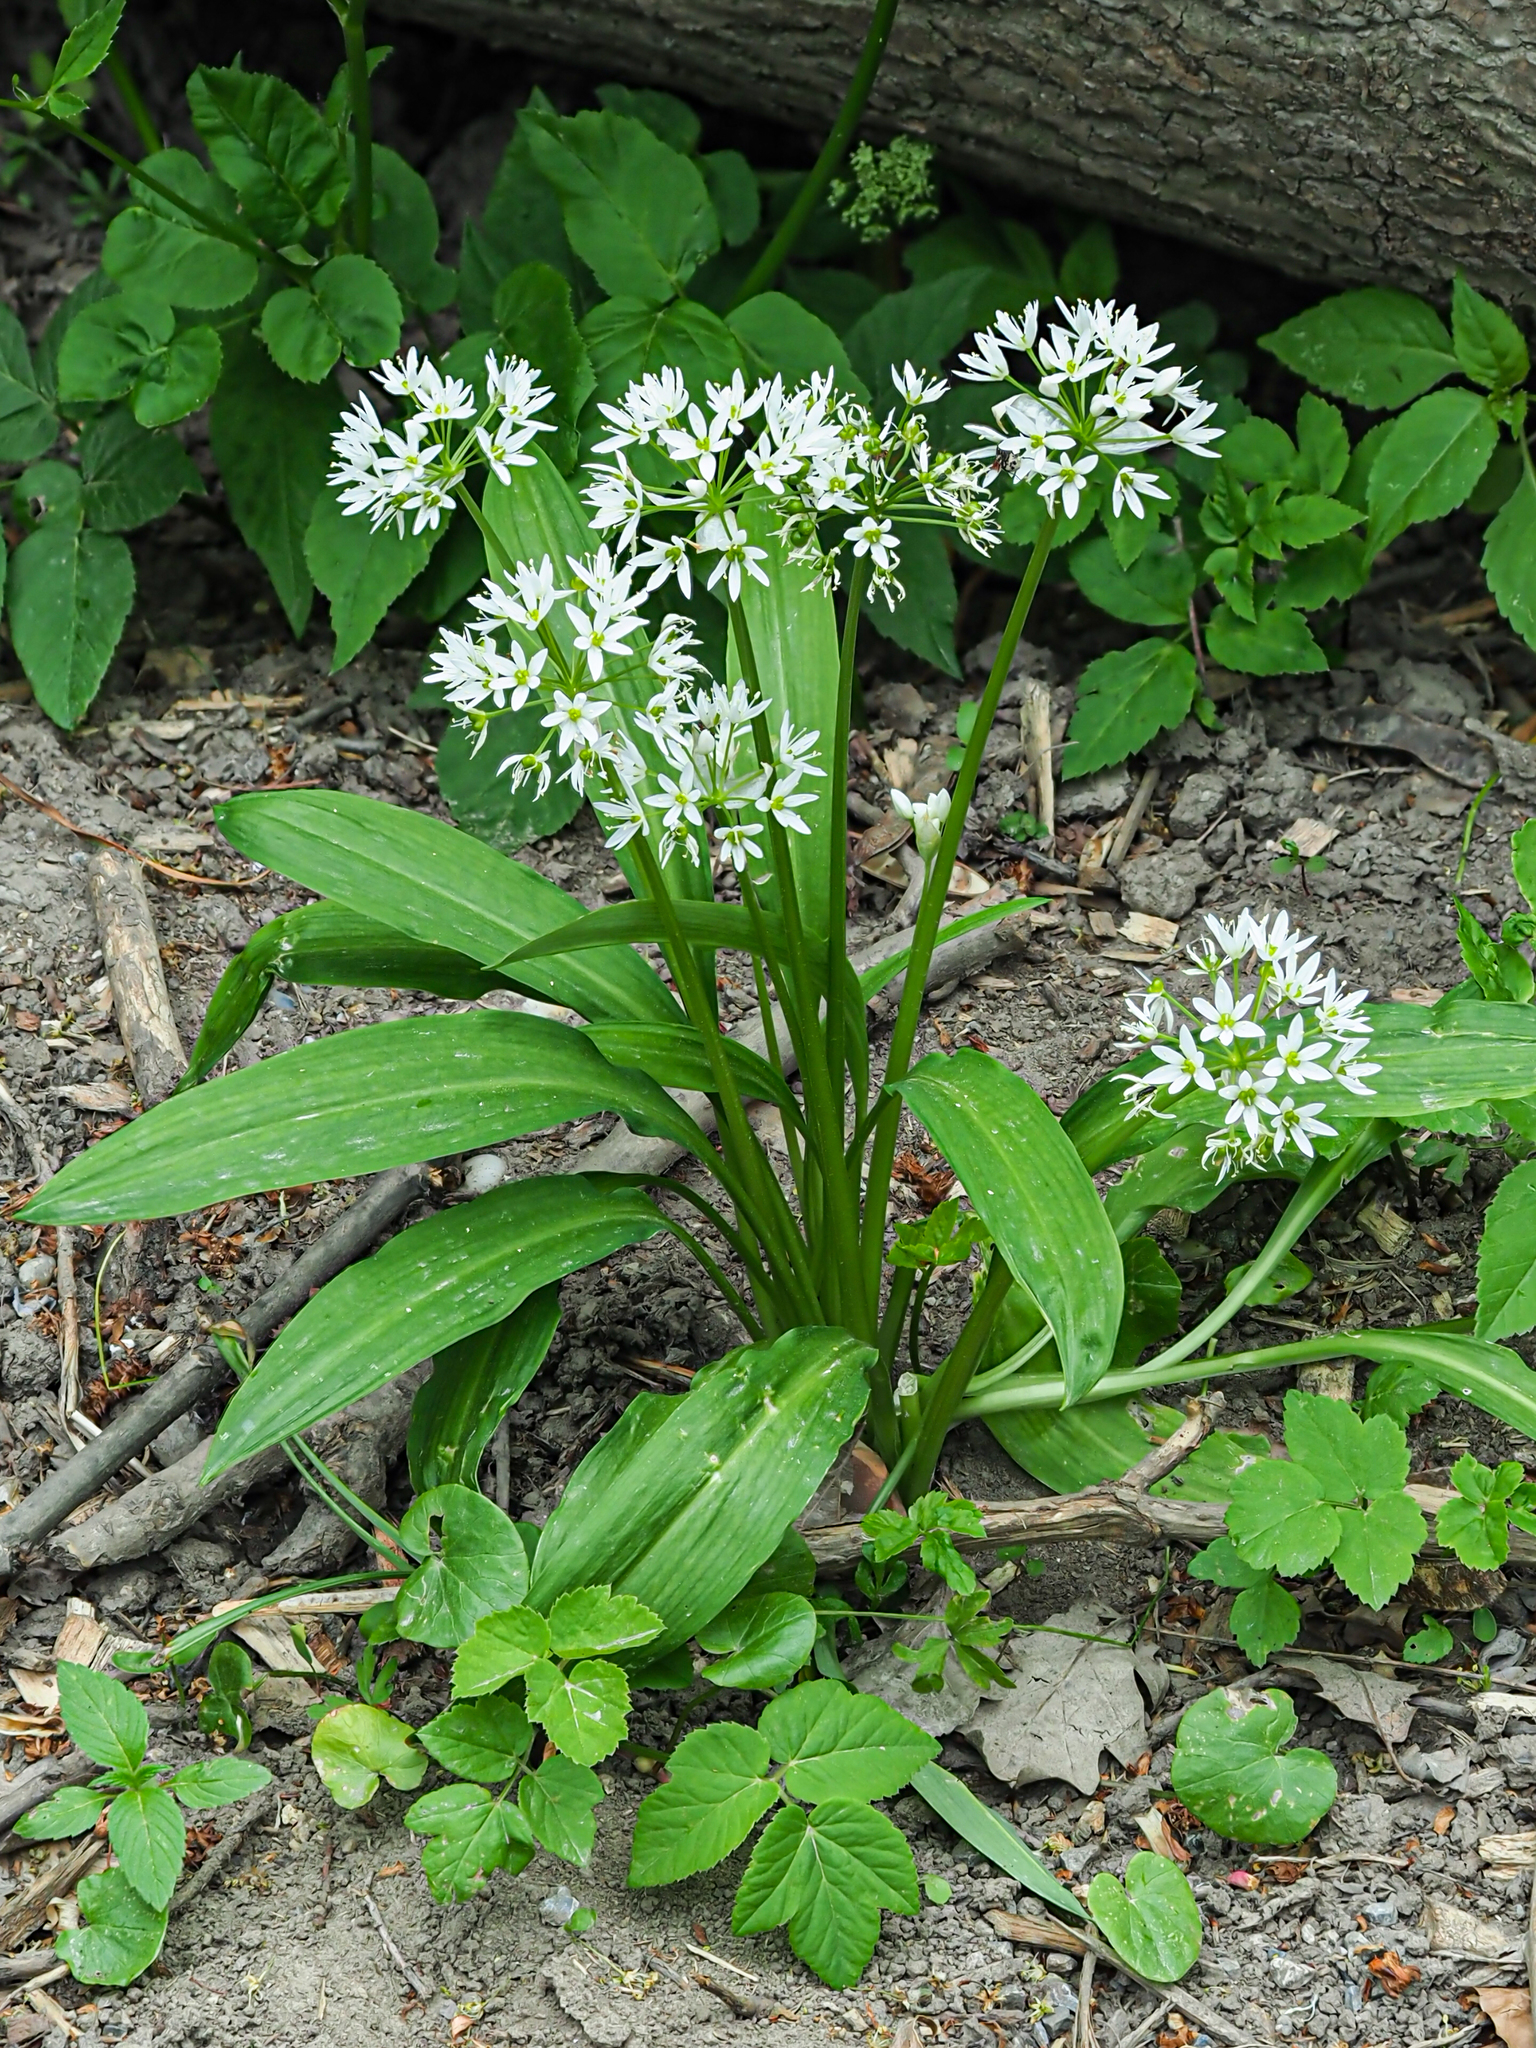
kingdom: Plantae
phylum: Tracheophyta
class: Liliopsida
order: Asparagales
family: Amaryllidaceae
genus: Allium
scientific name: Allium ursinum
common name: Ramsons
